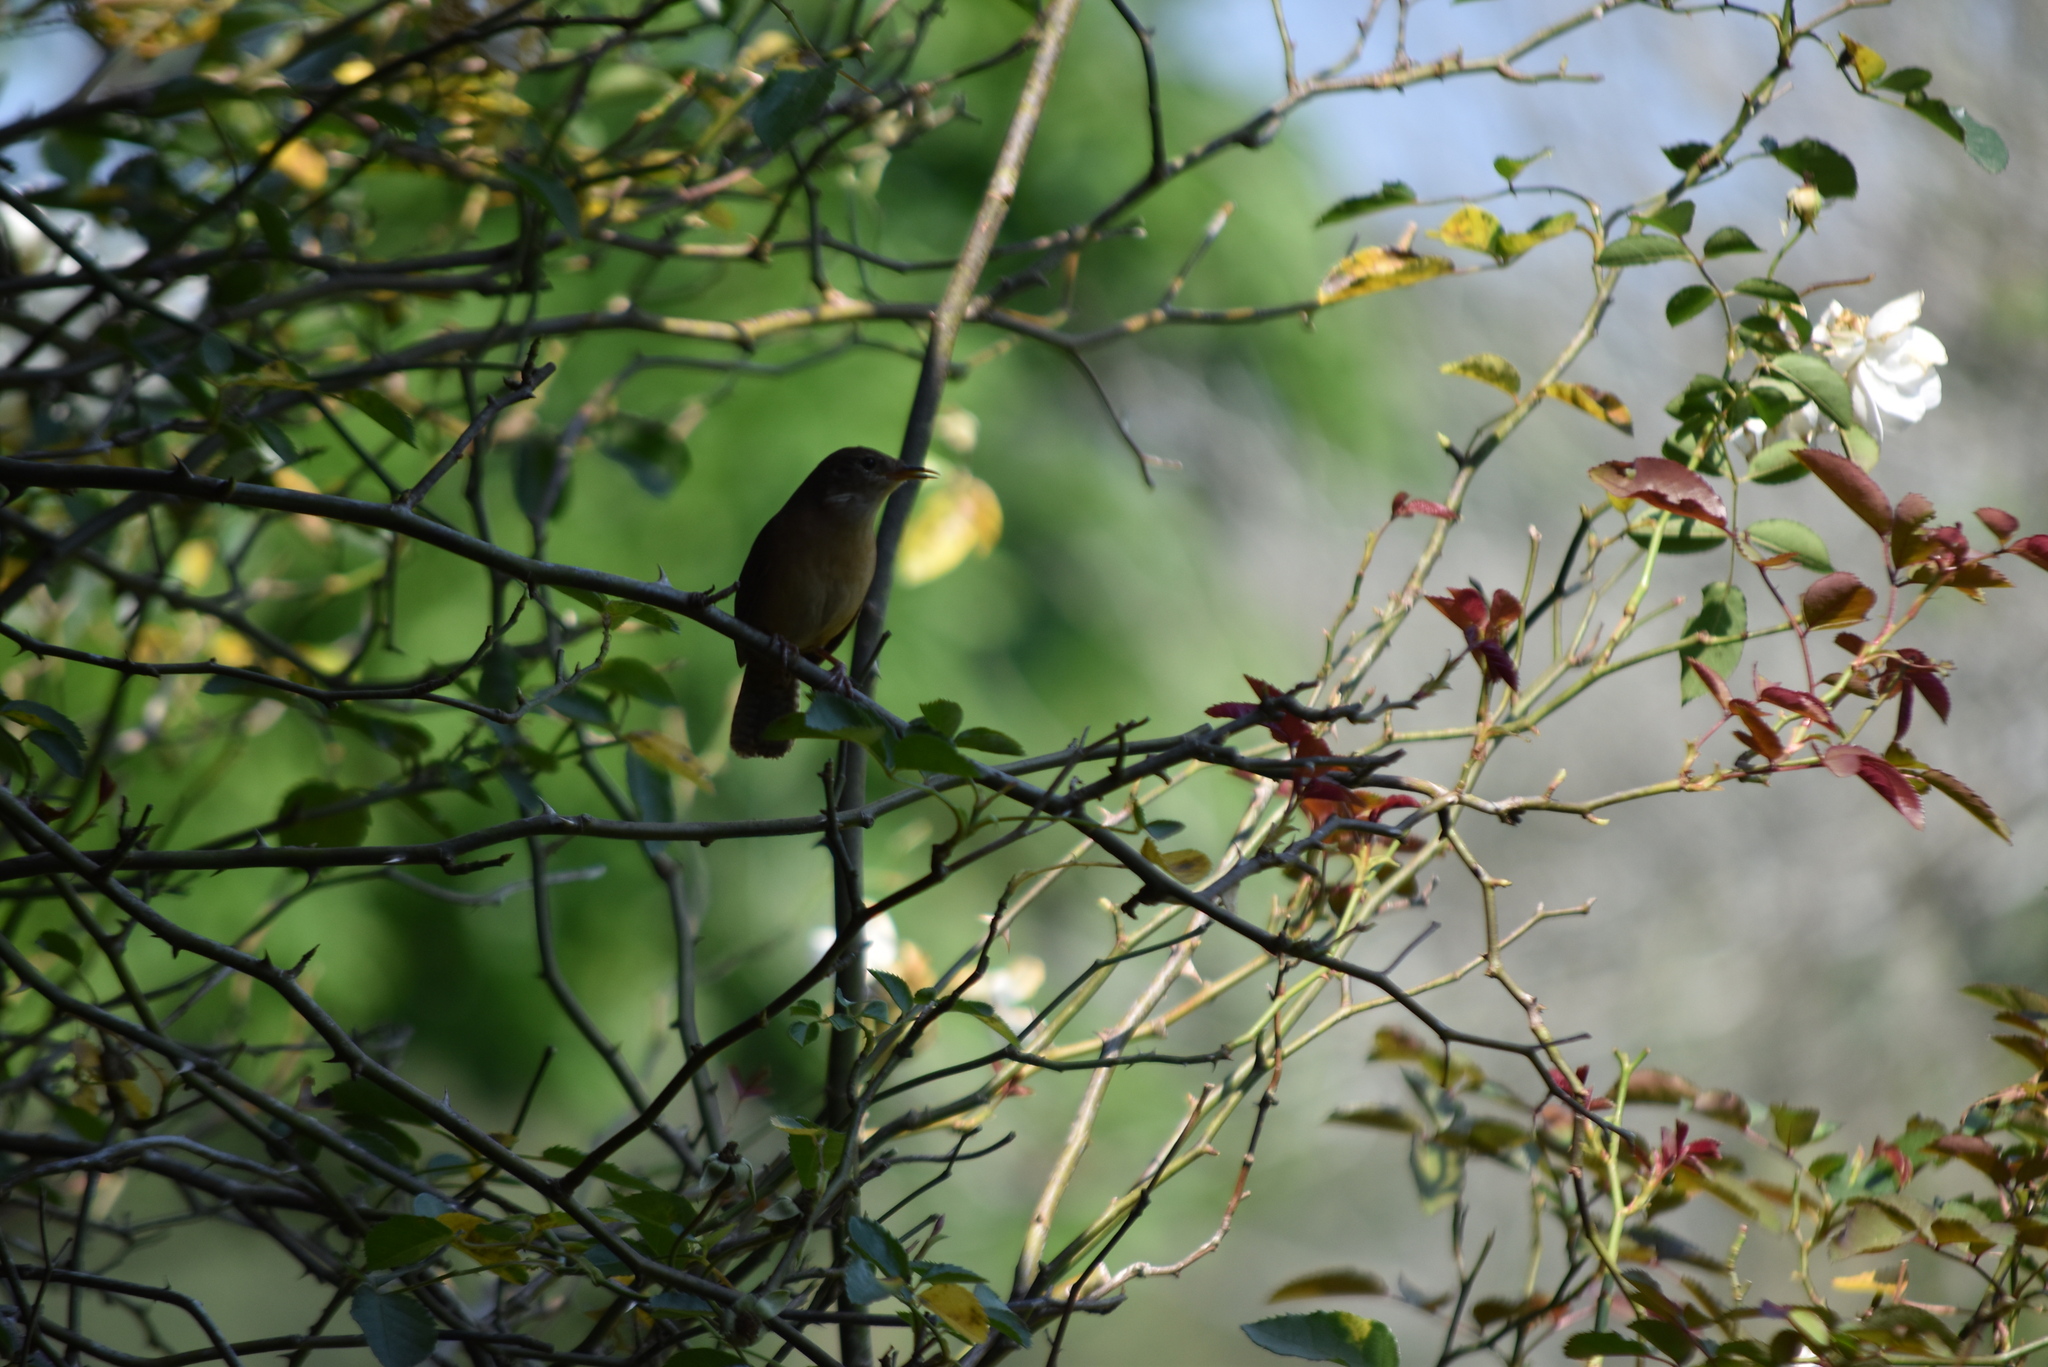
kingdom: Animalia
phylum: Chordata
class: Aves
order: Passeriformes
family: Troglodytidae
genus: Troglodytes
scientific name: Troglodytes aedon
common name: House wren
